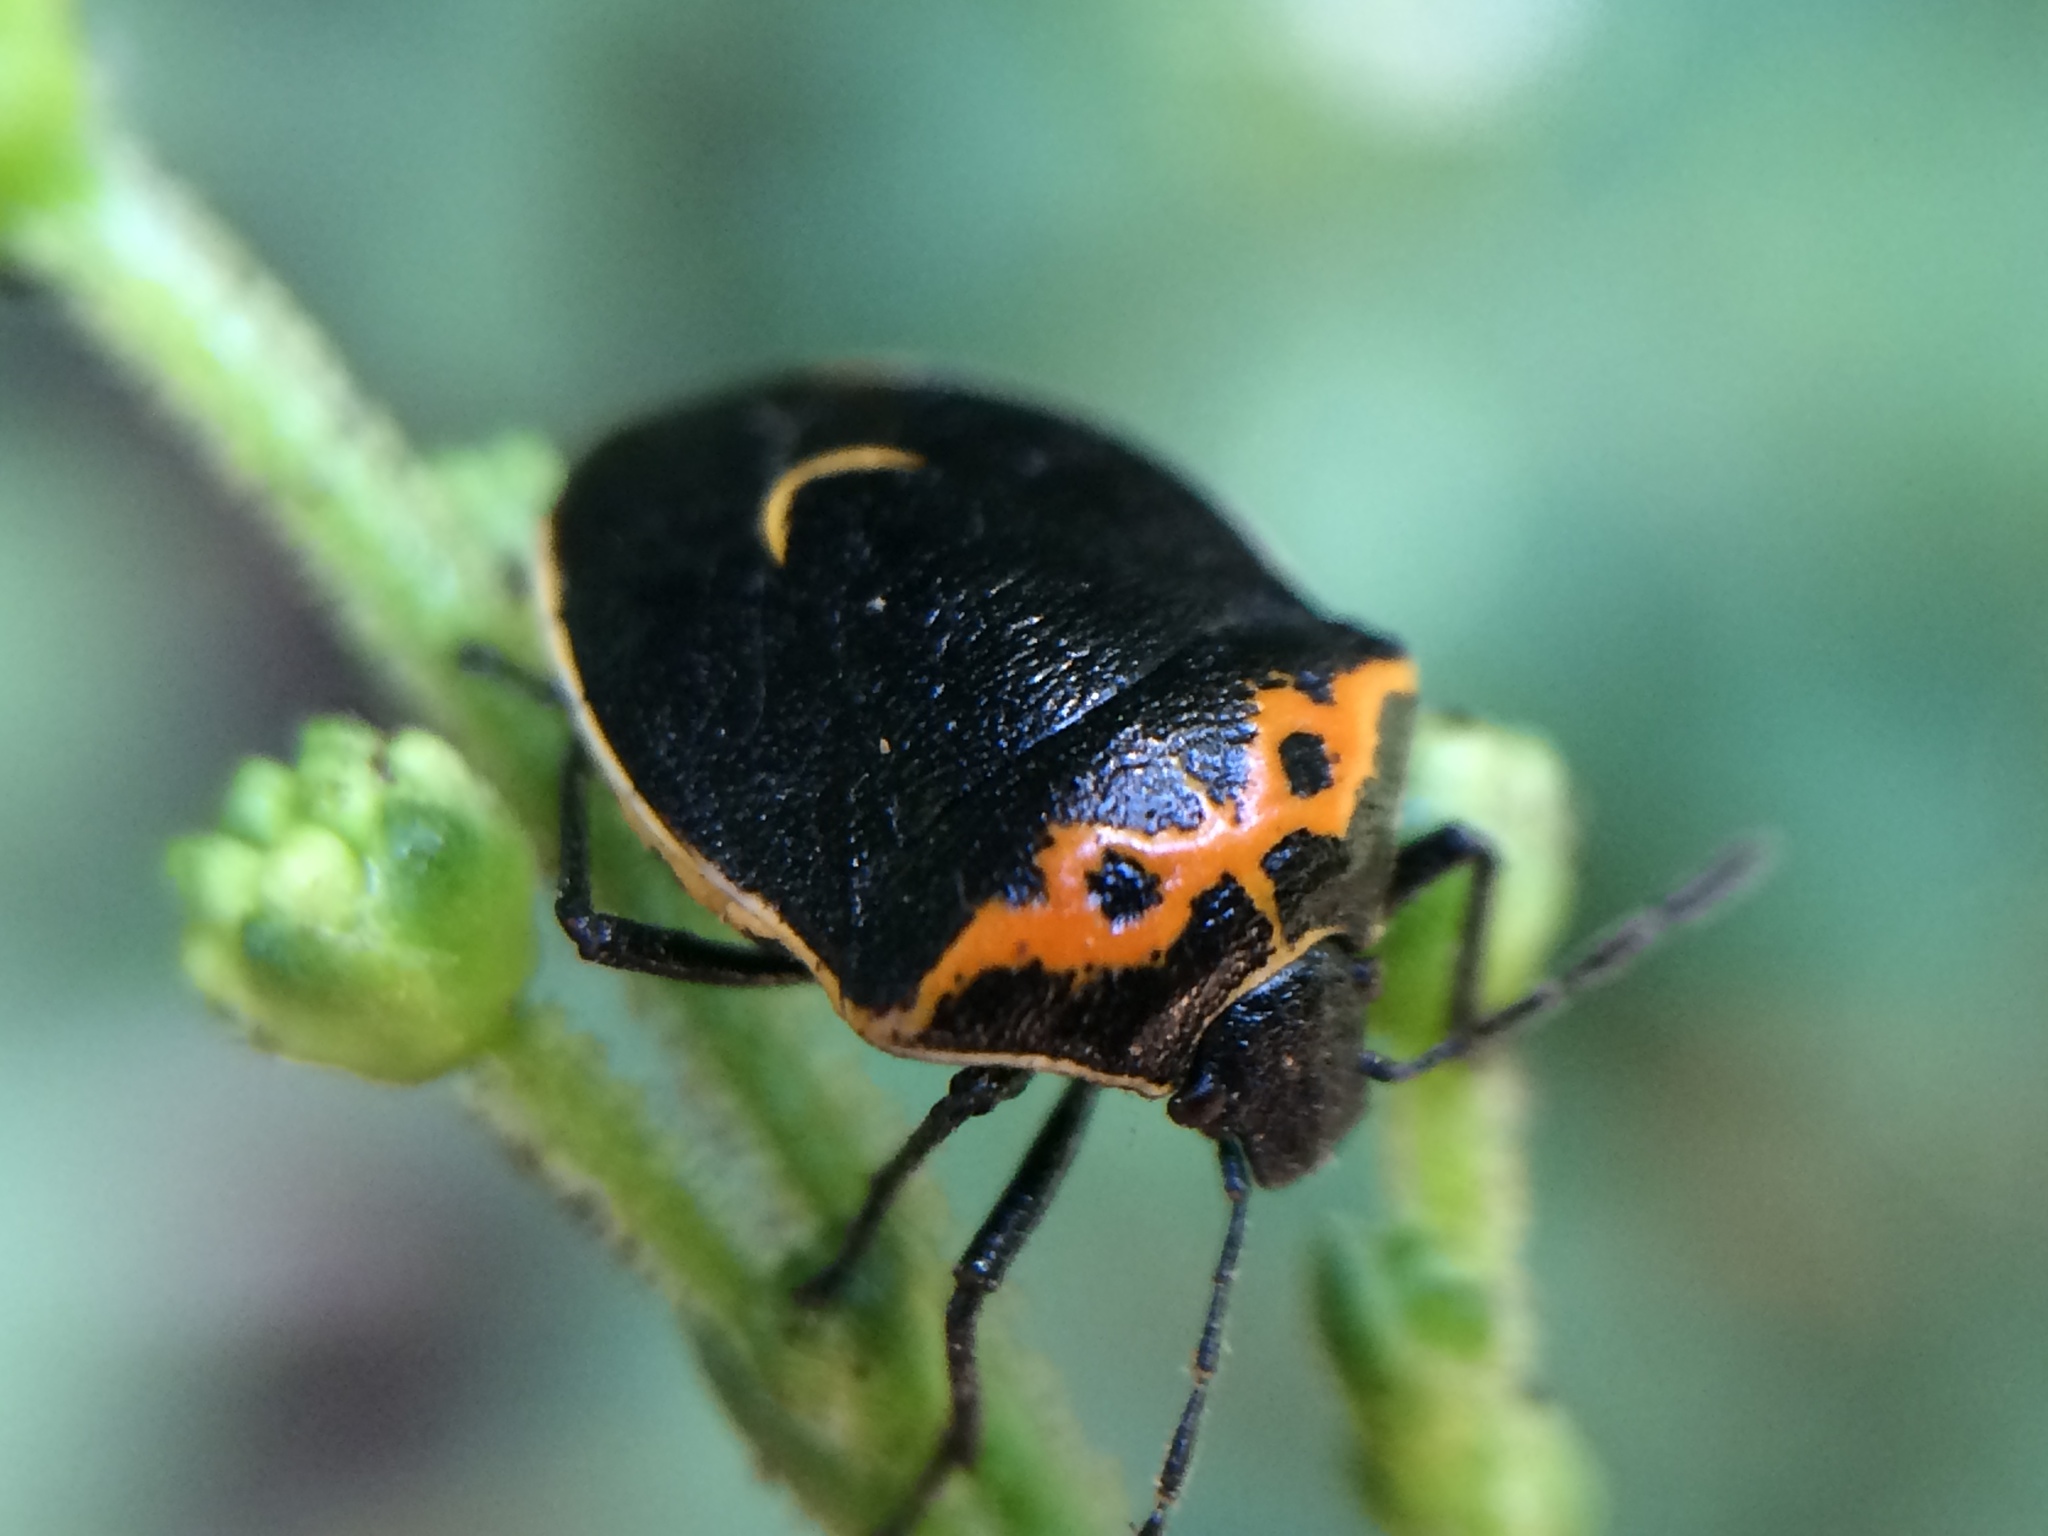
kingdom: Animalia
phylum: Arthropoda
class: Insecta
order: Hemiptera
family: Pentatomidae
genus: Cosmopepla
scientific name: Cosmopepla conspicillaris
